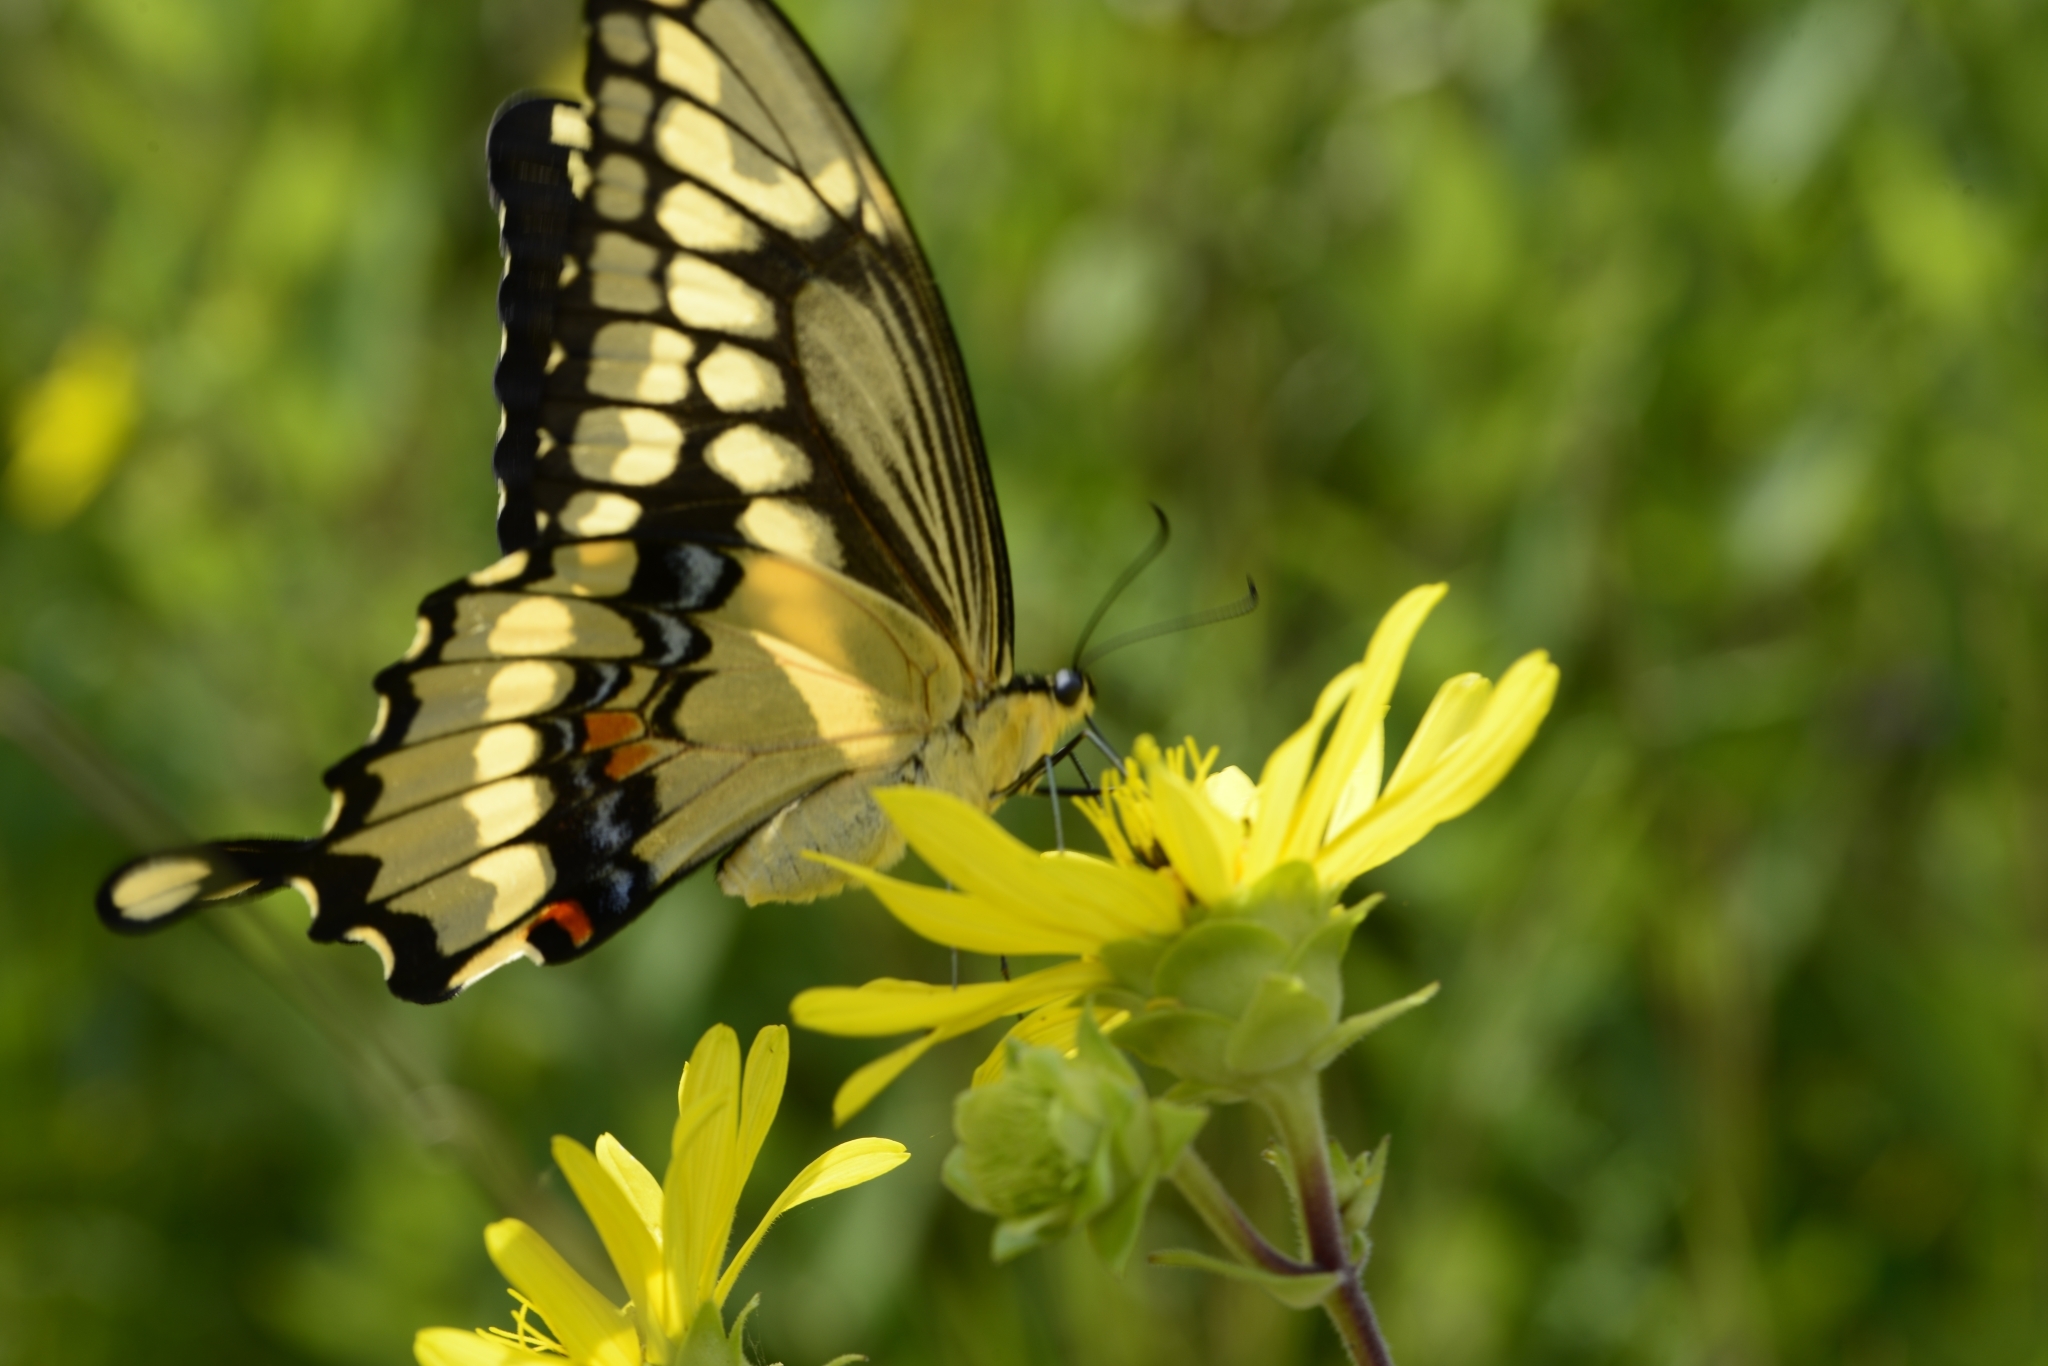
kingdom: Animalia
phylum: Arthropoda
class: Insecta
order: Lepidoptera
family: Papilionidae
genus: Papilio
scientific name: Papilio cresphontes
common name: Giant swallowtail
